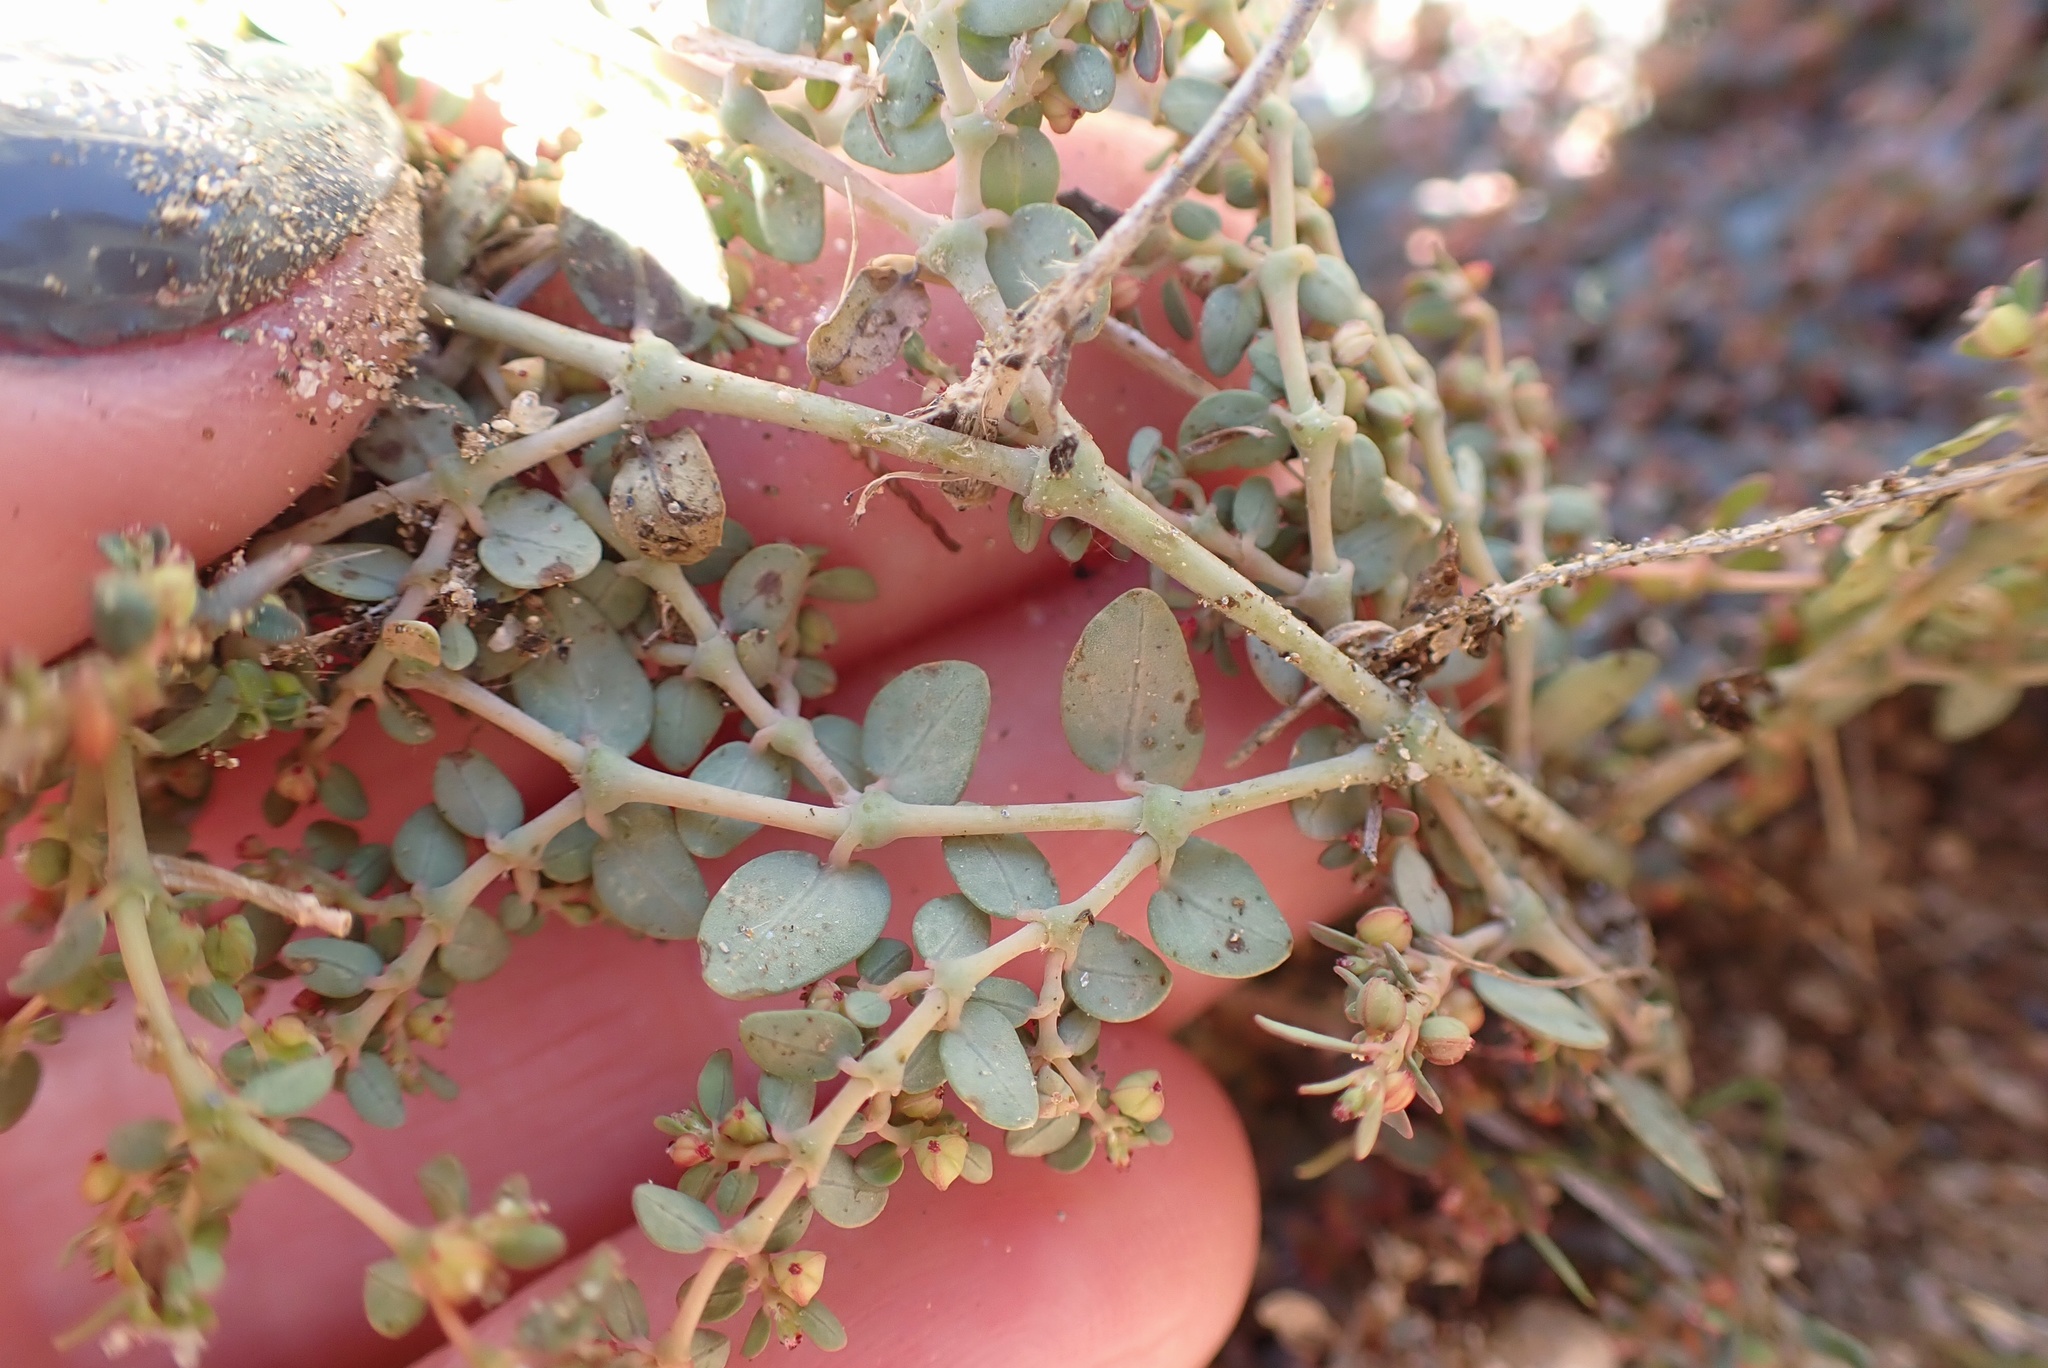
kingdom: Plantae
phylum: Tracheophyta
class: Magnoliopsida
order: Malpighiales
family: Euphorbiaceae
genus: Euphorbia
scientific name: Euphorbia micromera
